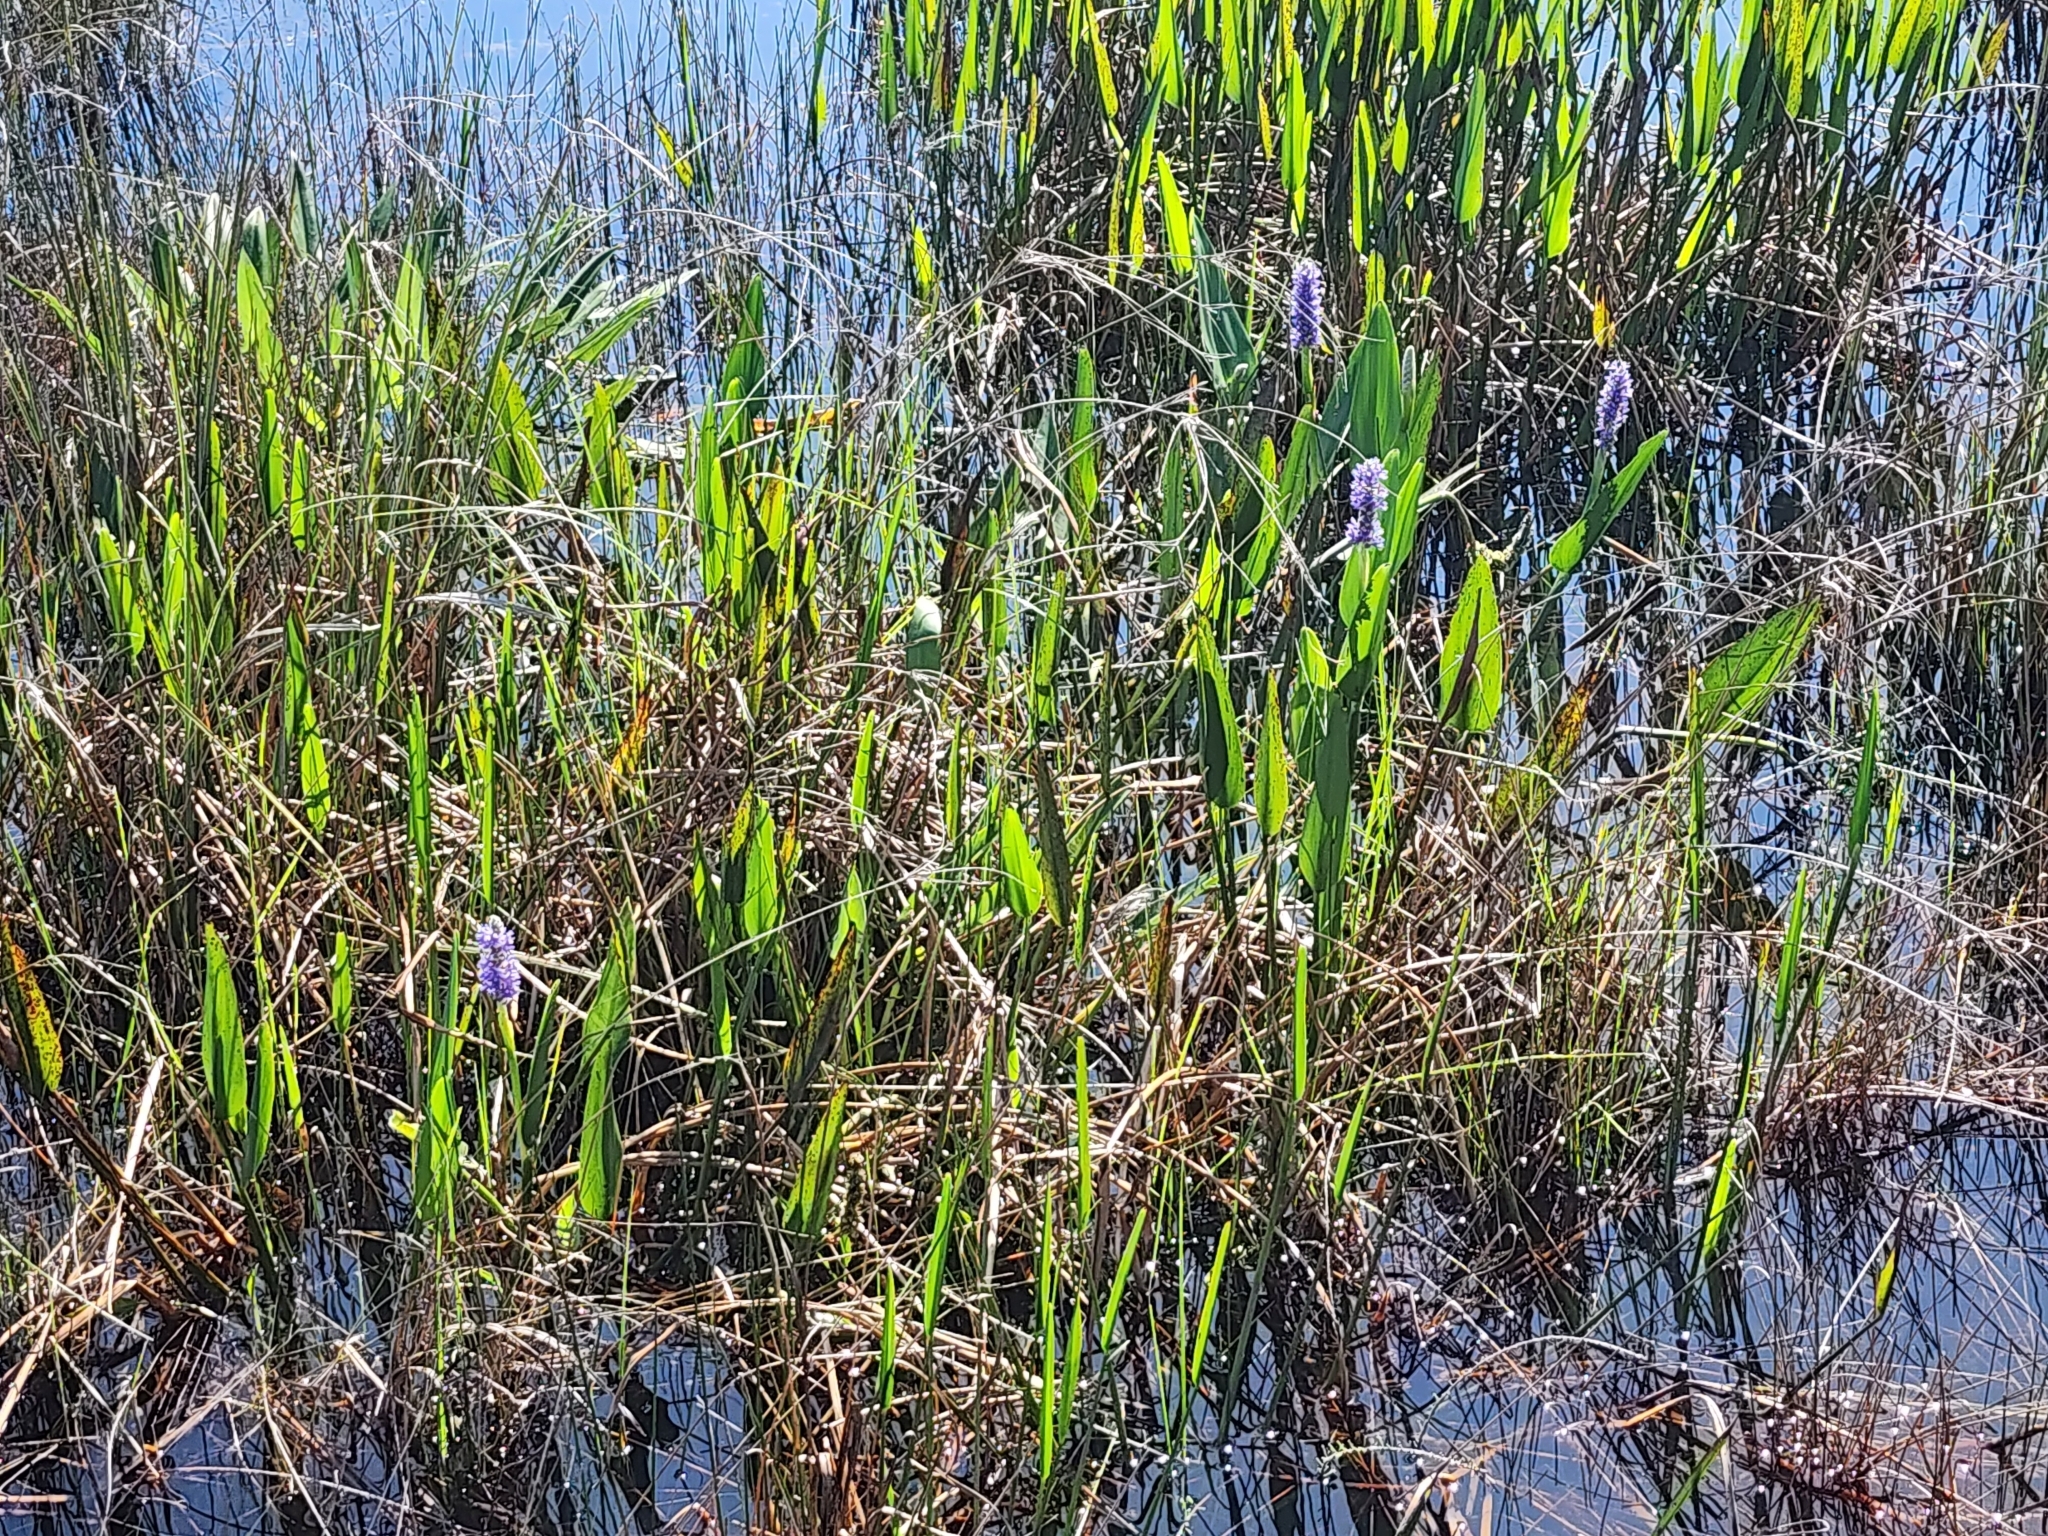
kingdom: Plantae
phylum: Tracheophyta
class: Liliopsida
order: Commelinales
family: Pontederiaceae
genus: Pontederia
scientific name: Pontederia cordata
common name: Pickerelweed
